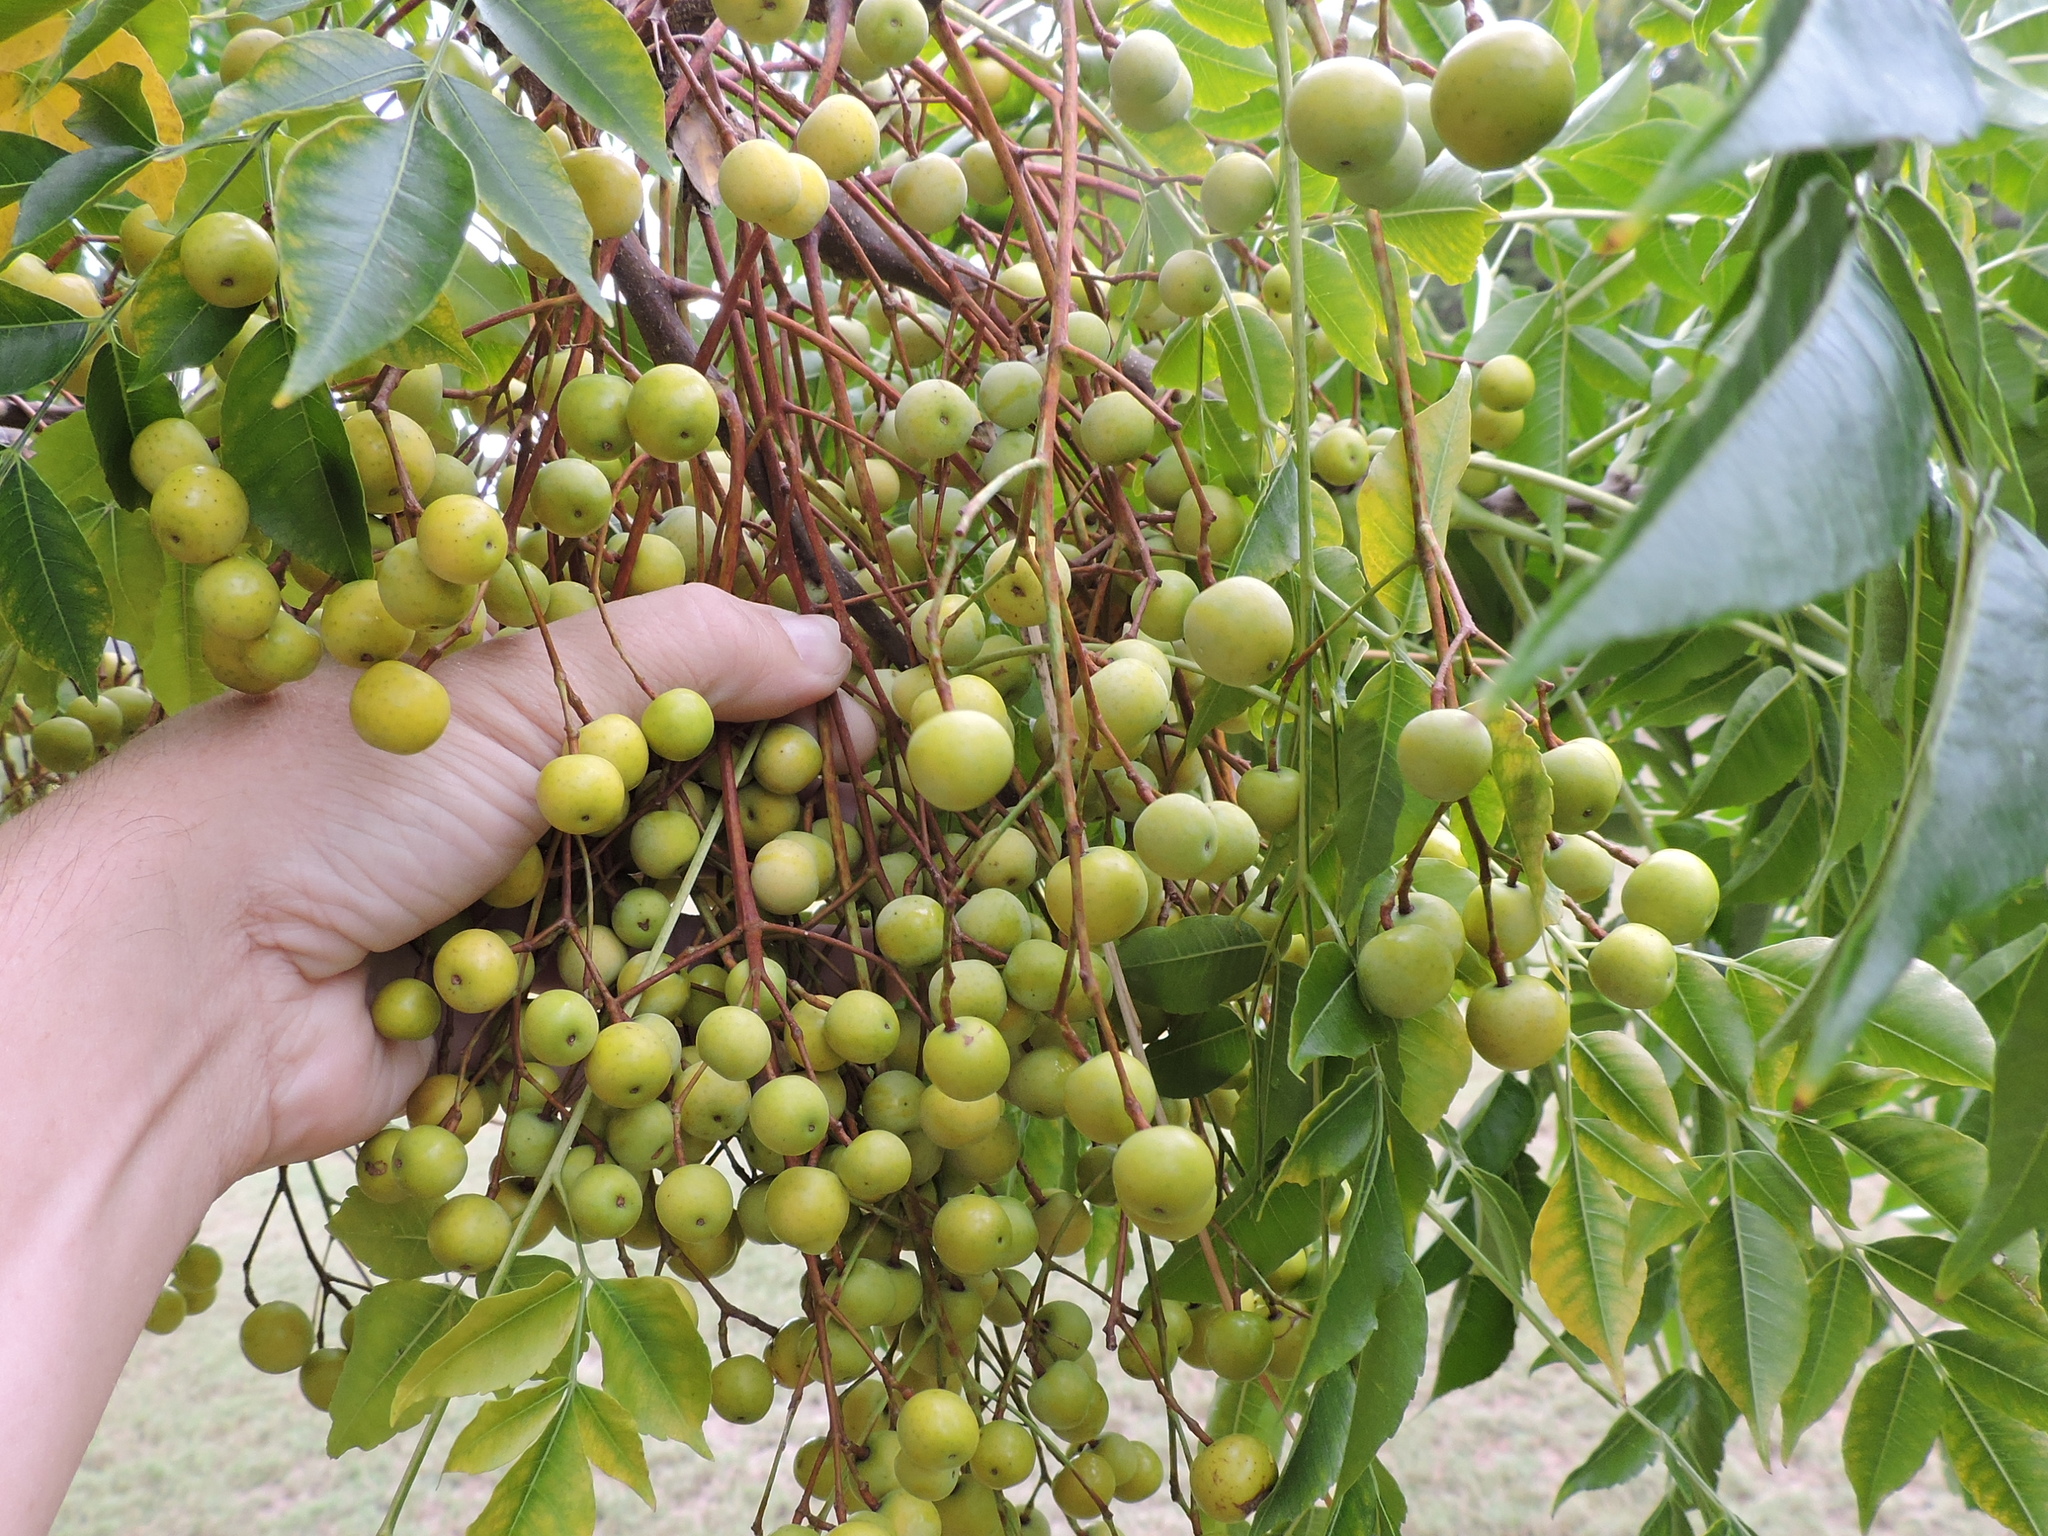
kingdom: Plantae
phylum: Tracheophyta
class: Magnoliopsida
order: Sapindales
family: Meliaceae
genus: Melia
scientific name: Melia azedarach
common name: Chinaberrytree
